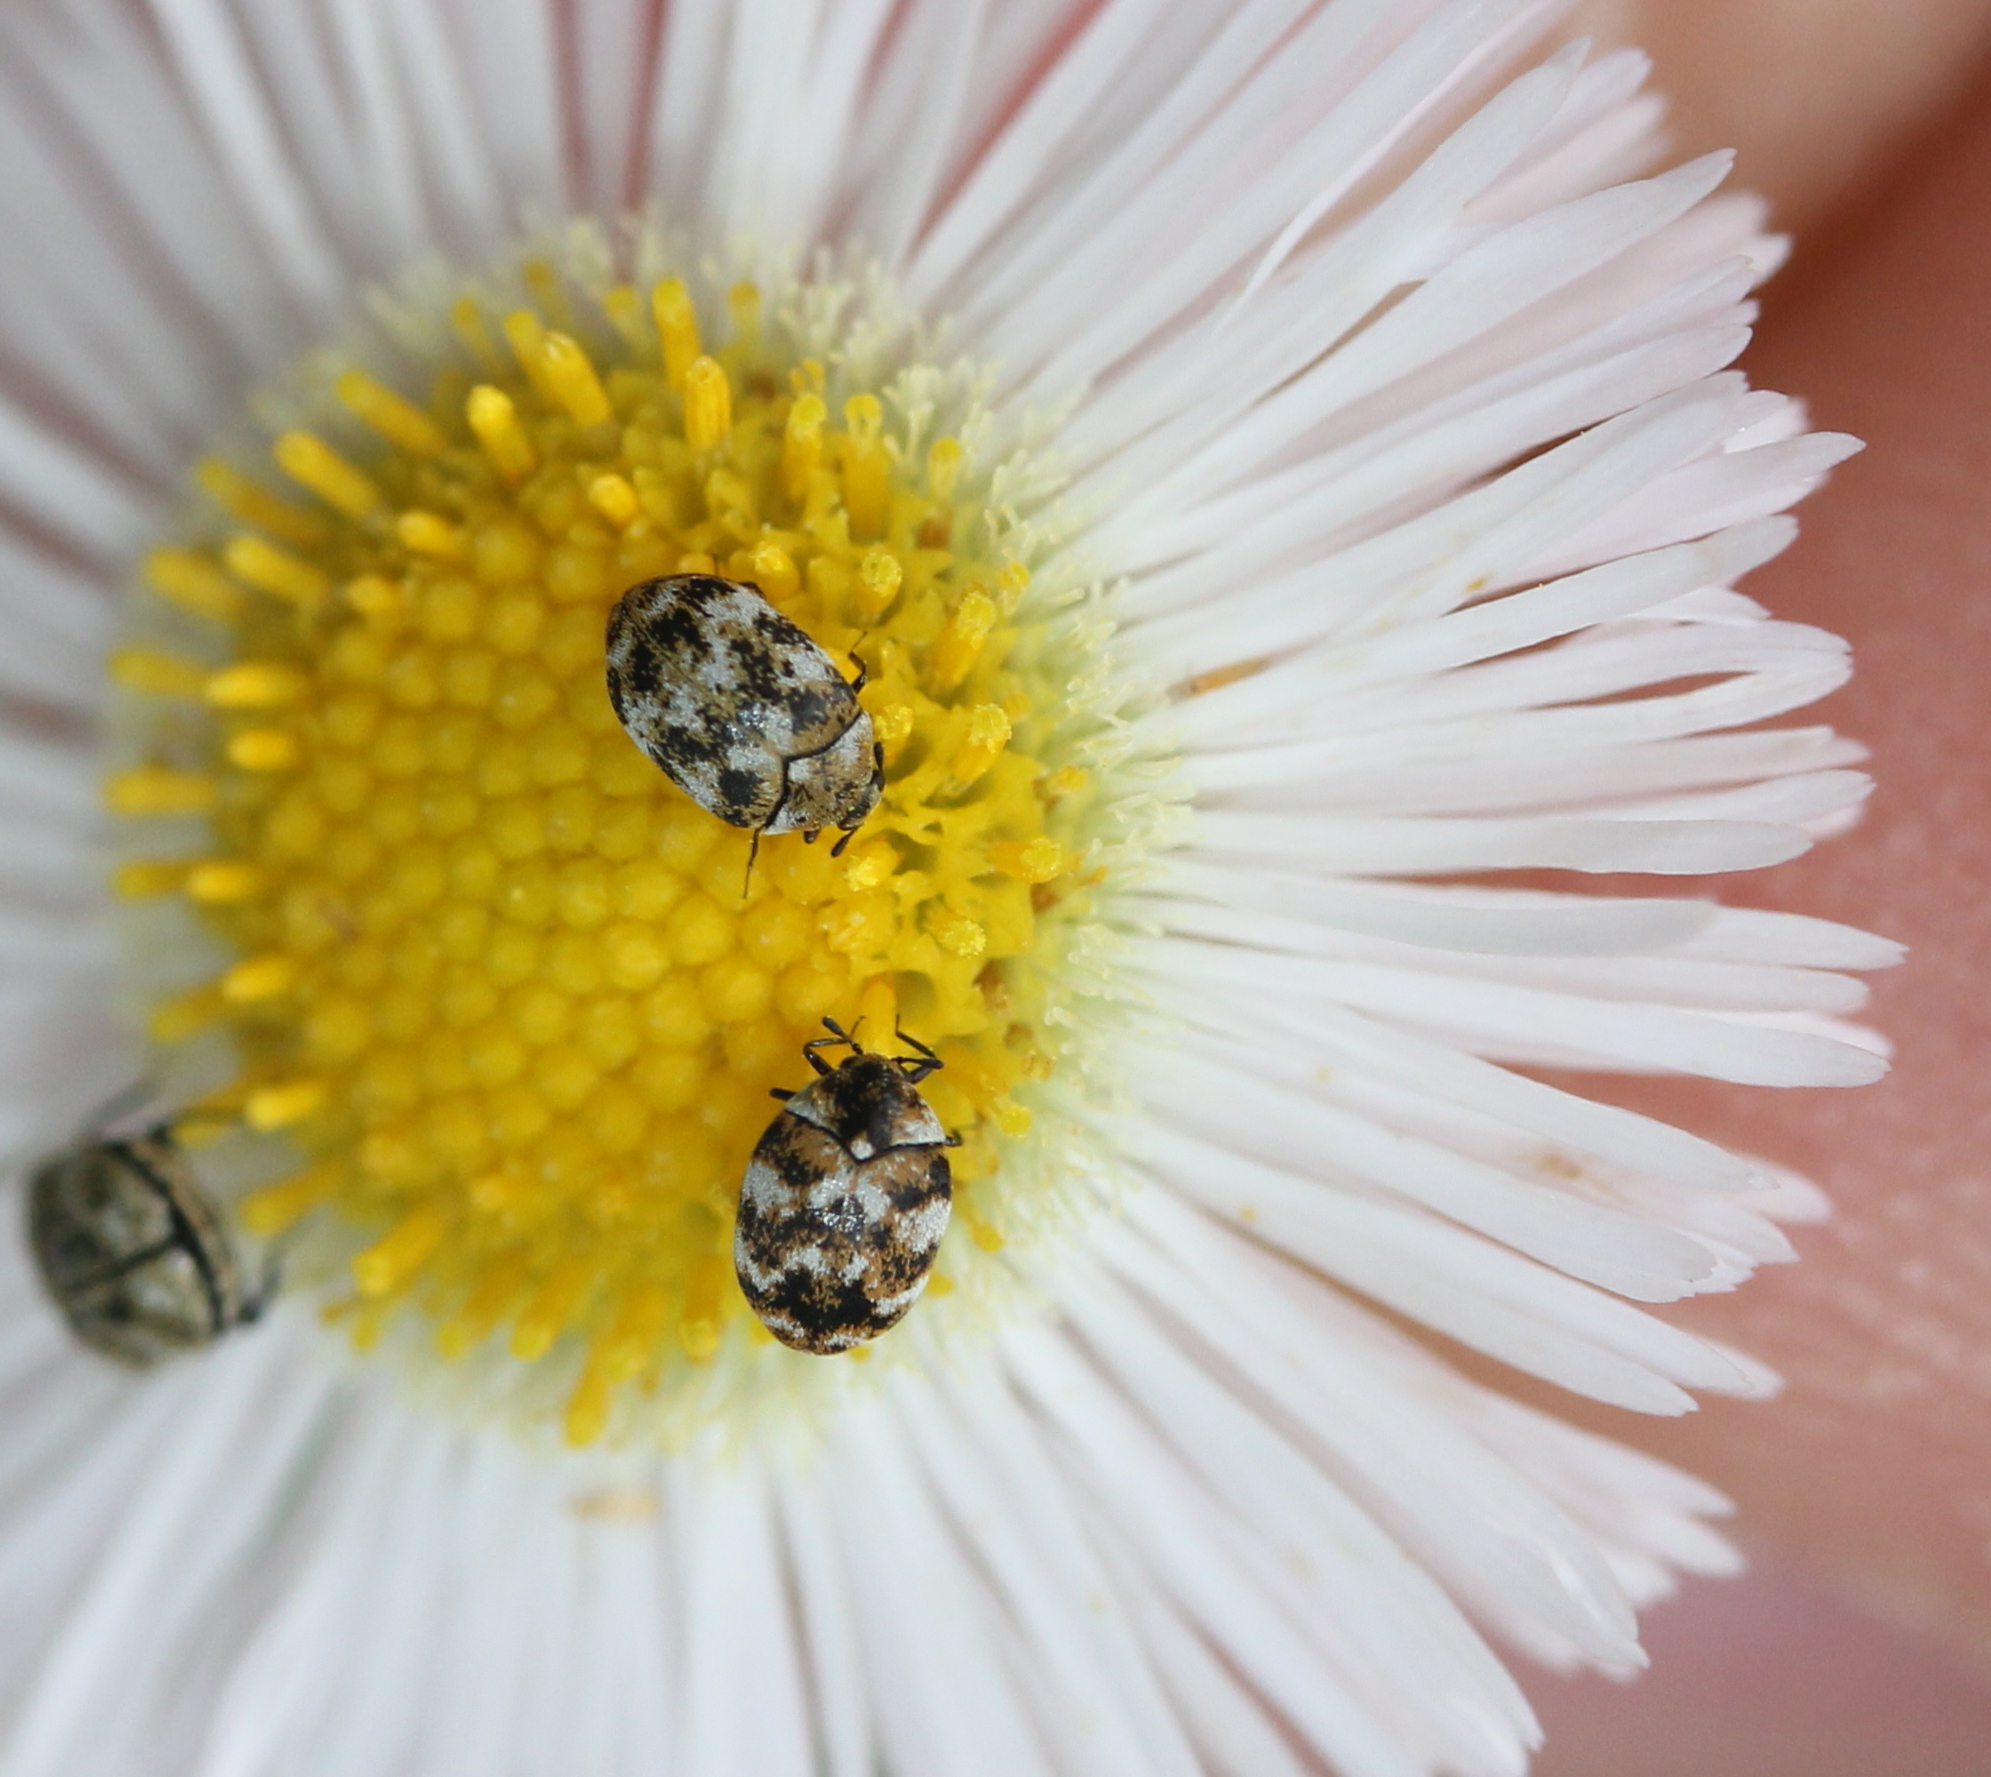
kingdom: Animalia
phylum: Arthropoda
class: Insecta
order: Coleoptera
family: Dermestidae
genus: Anthrenus
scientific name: Anthrenus verbasci
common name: Varied carpet beetle
